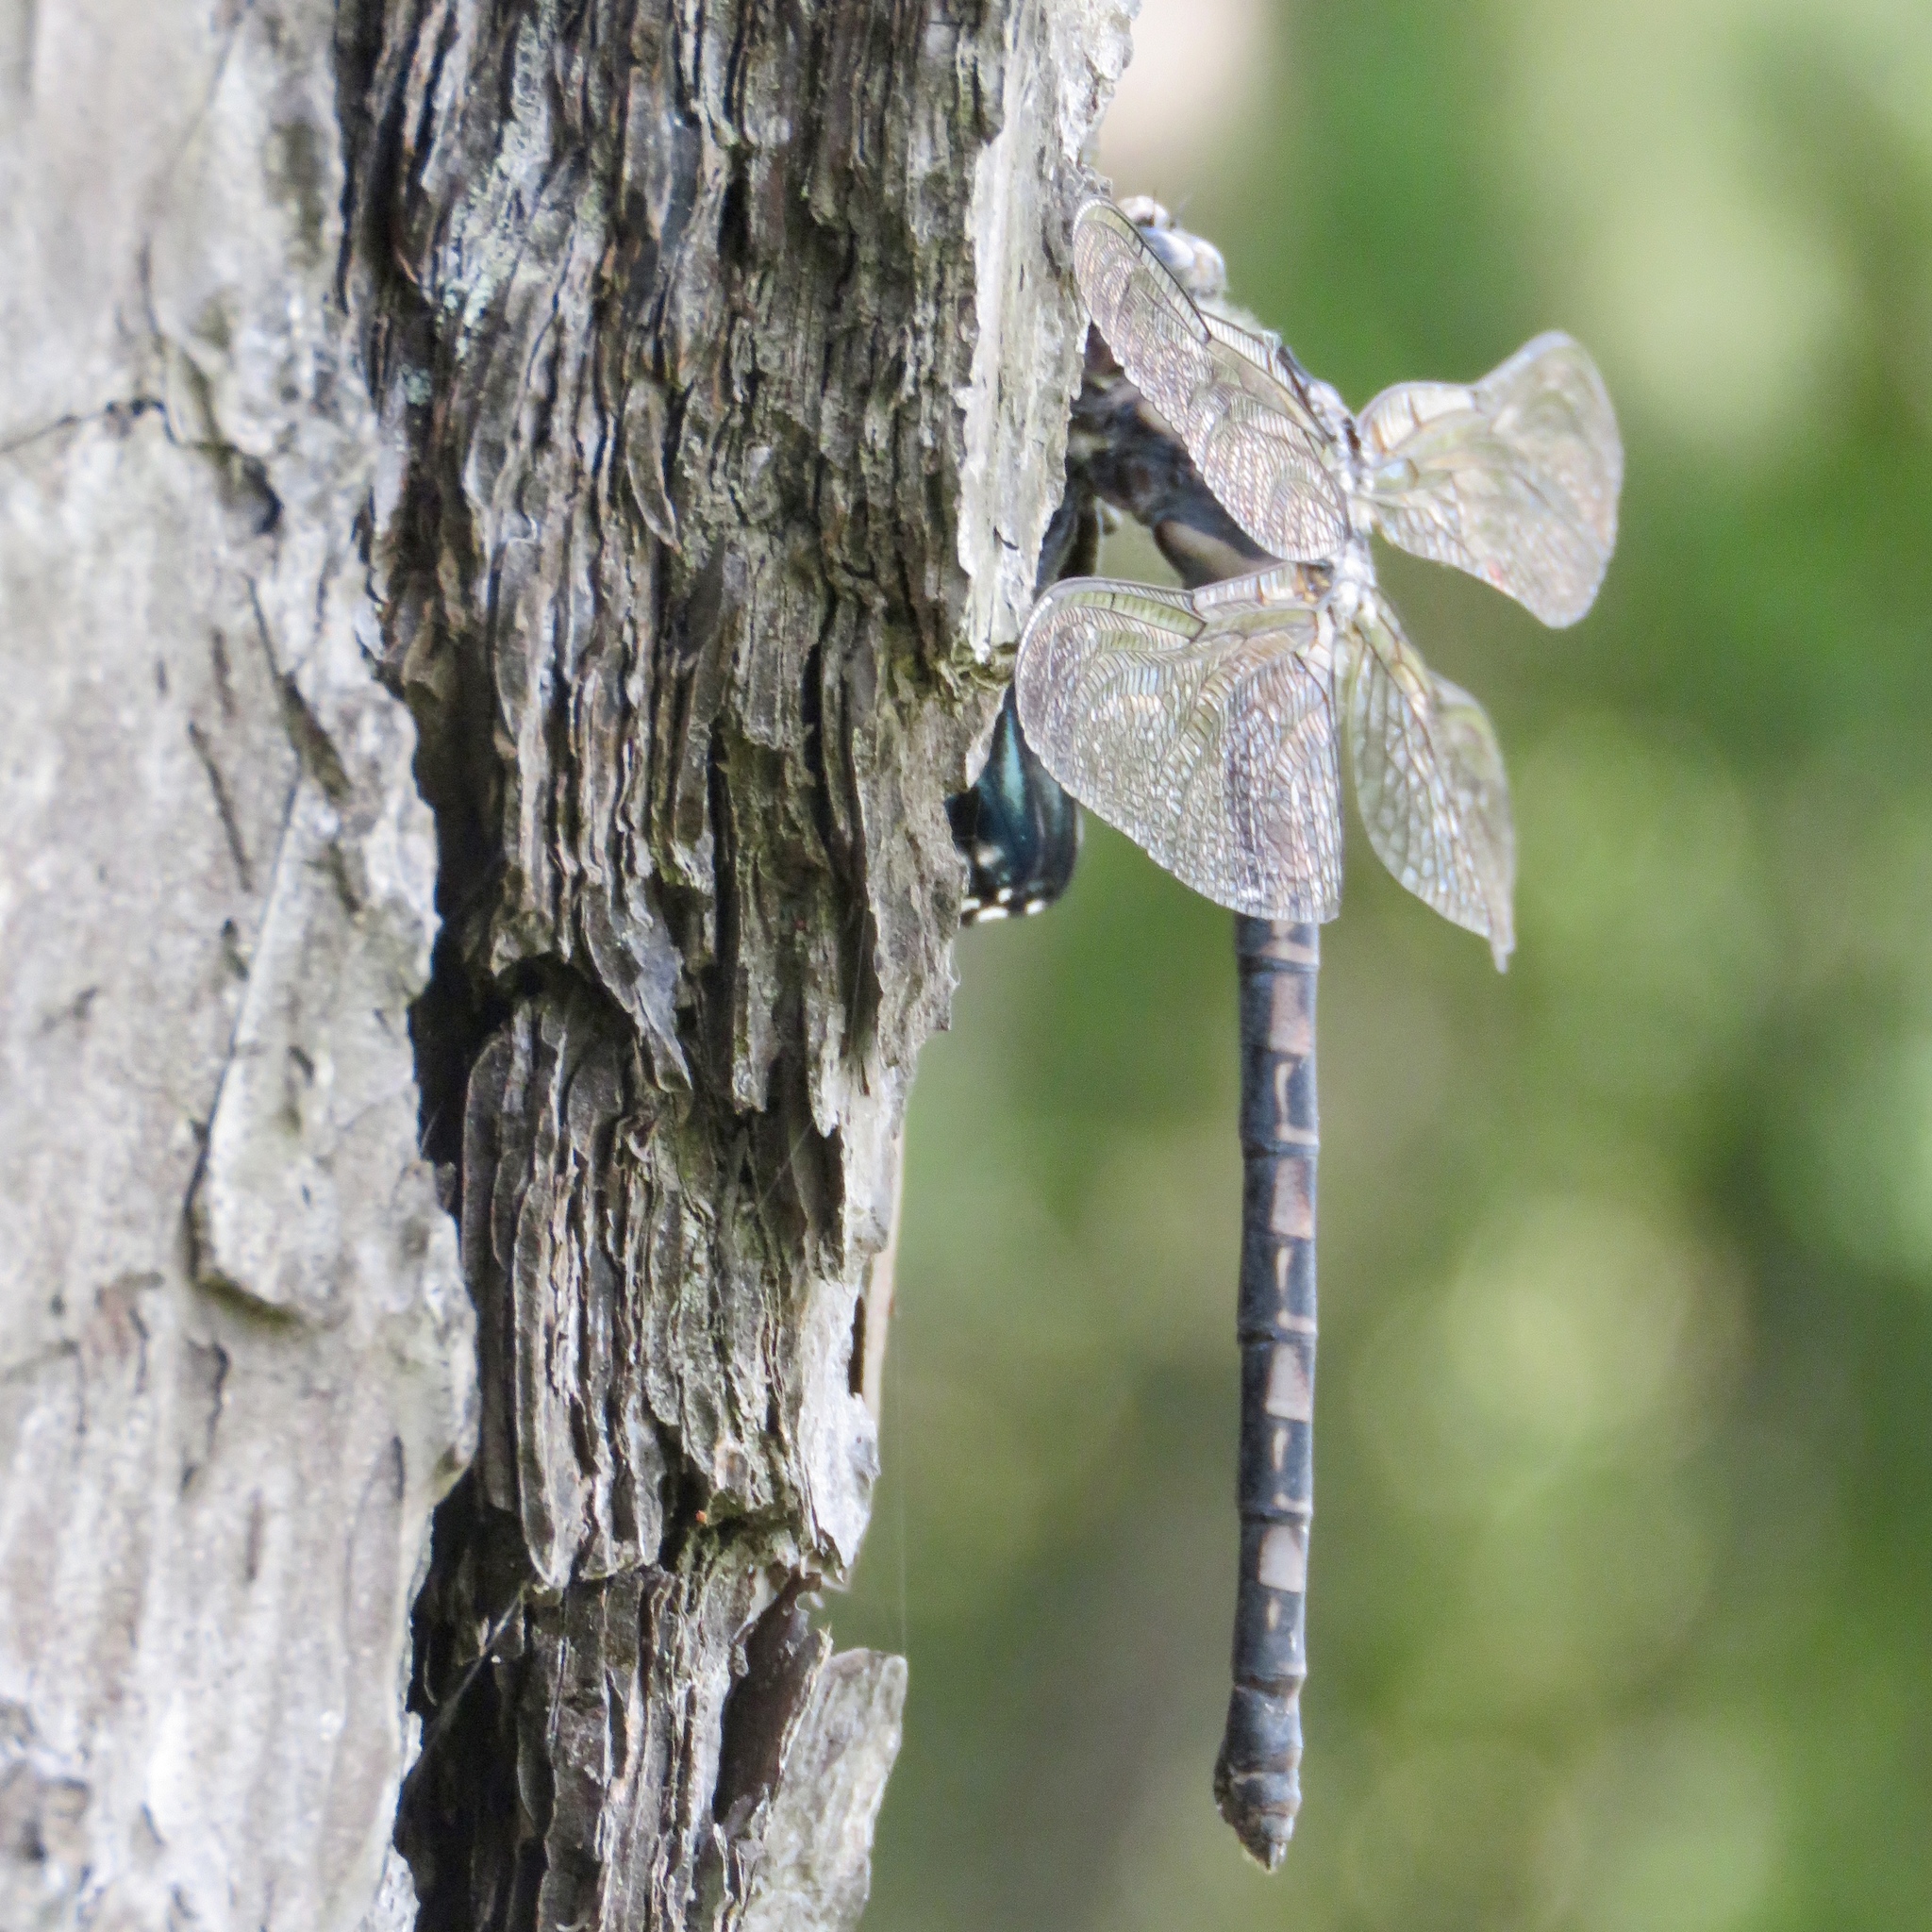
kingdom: Animalia
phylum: Arthropoda
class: Insecta
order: Odonata
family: Petaluridae
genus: Tachopteryx
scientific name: Tachopteryx thoreyi
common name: Gray petaltail
